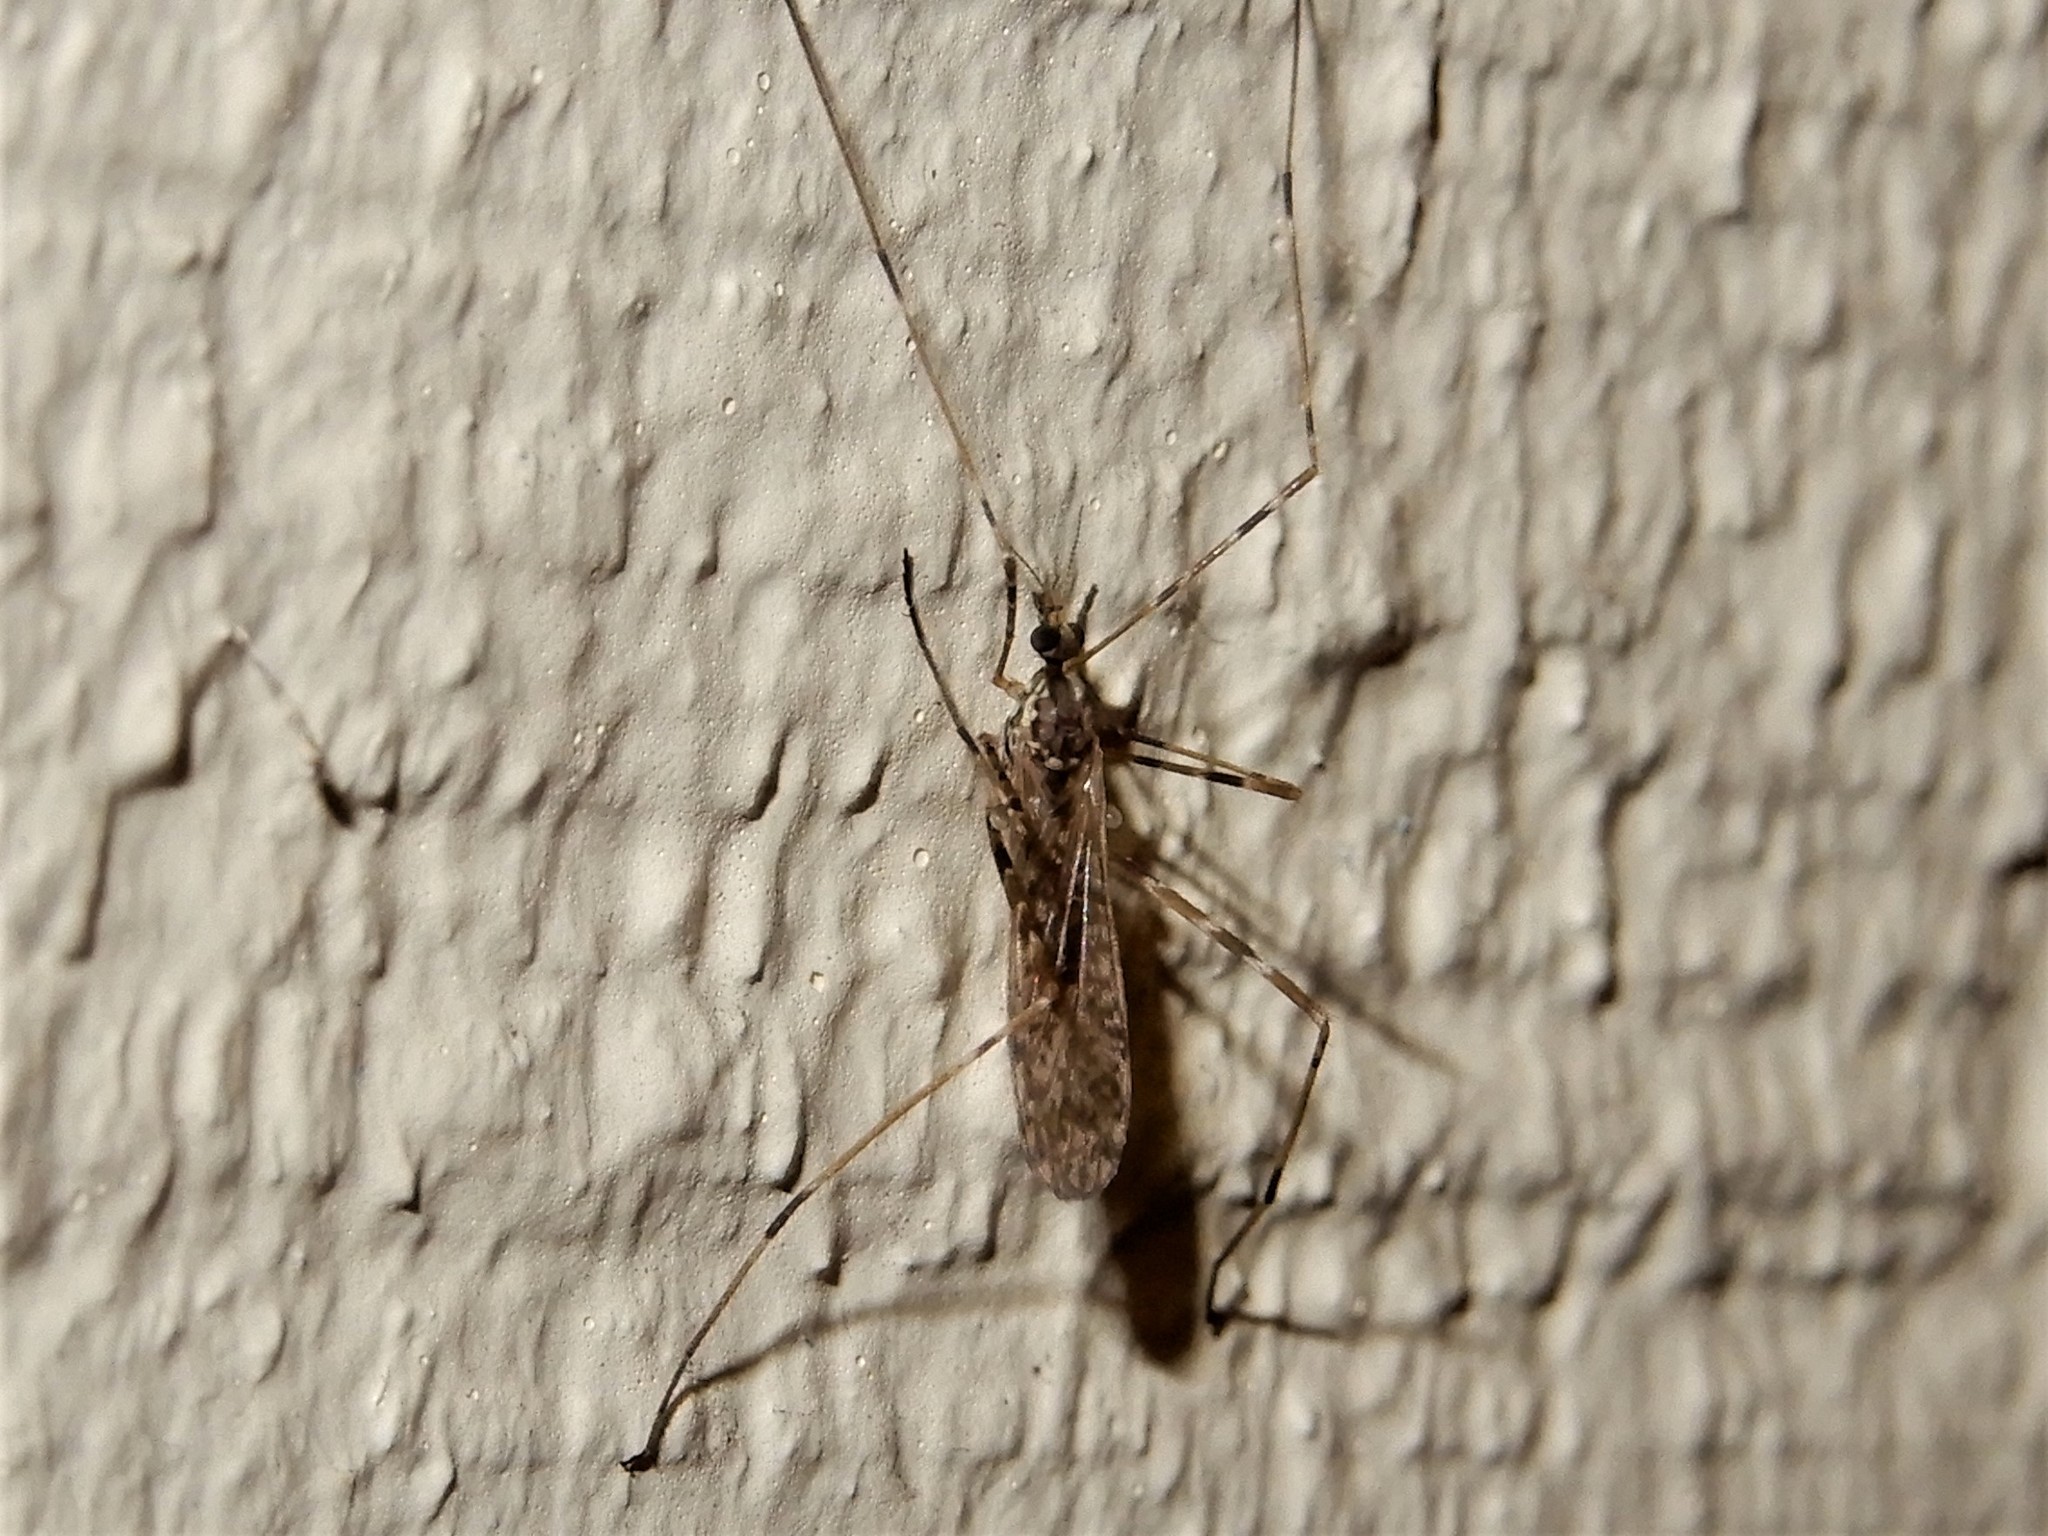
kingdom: Animalia
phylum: Arthropoda
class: Insecta
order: Diptera
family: Limoniidae
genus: Amphineurus
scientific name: Amphineurus hudsoni
